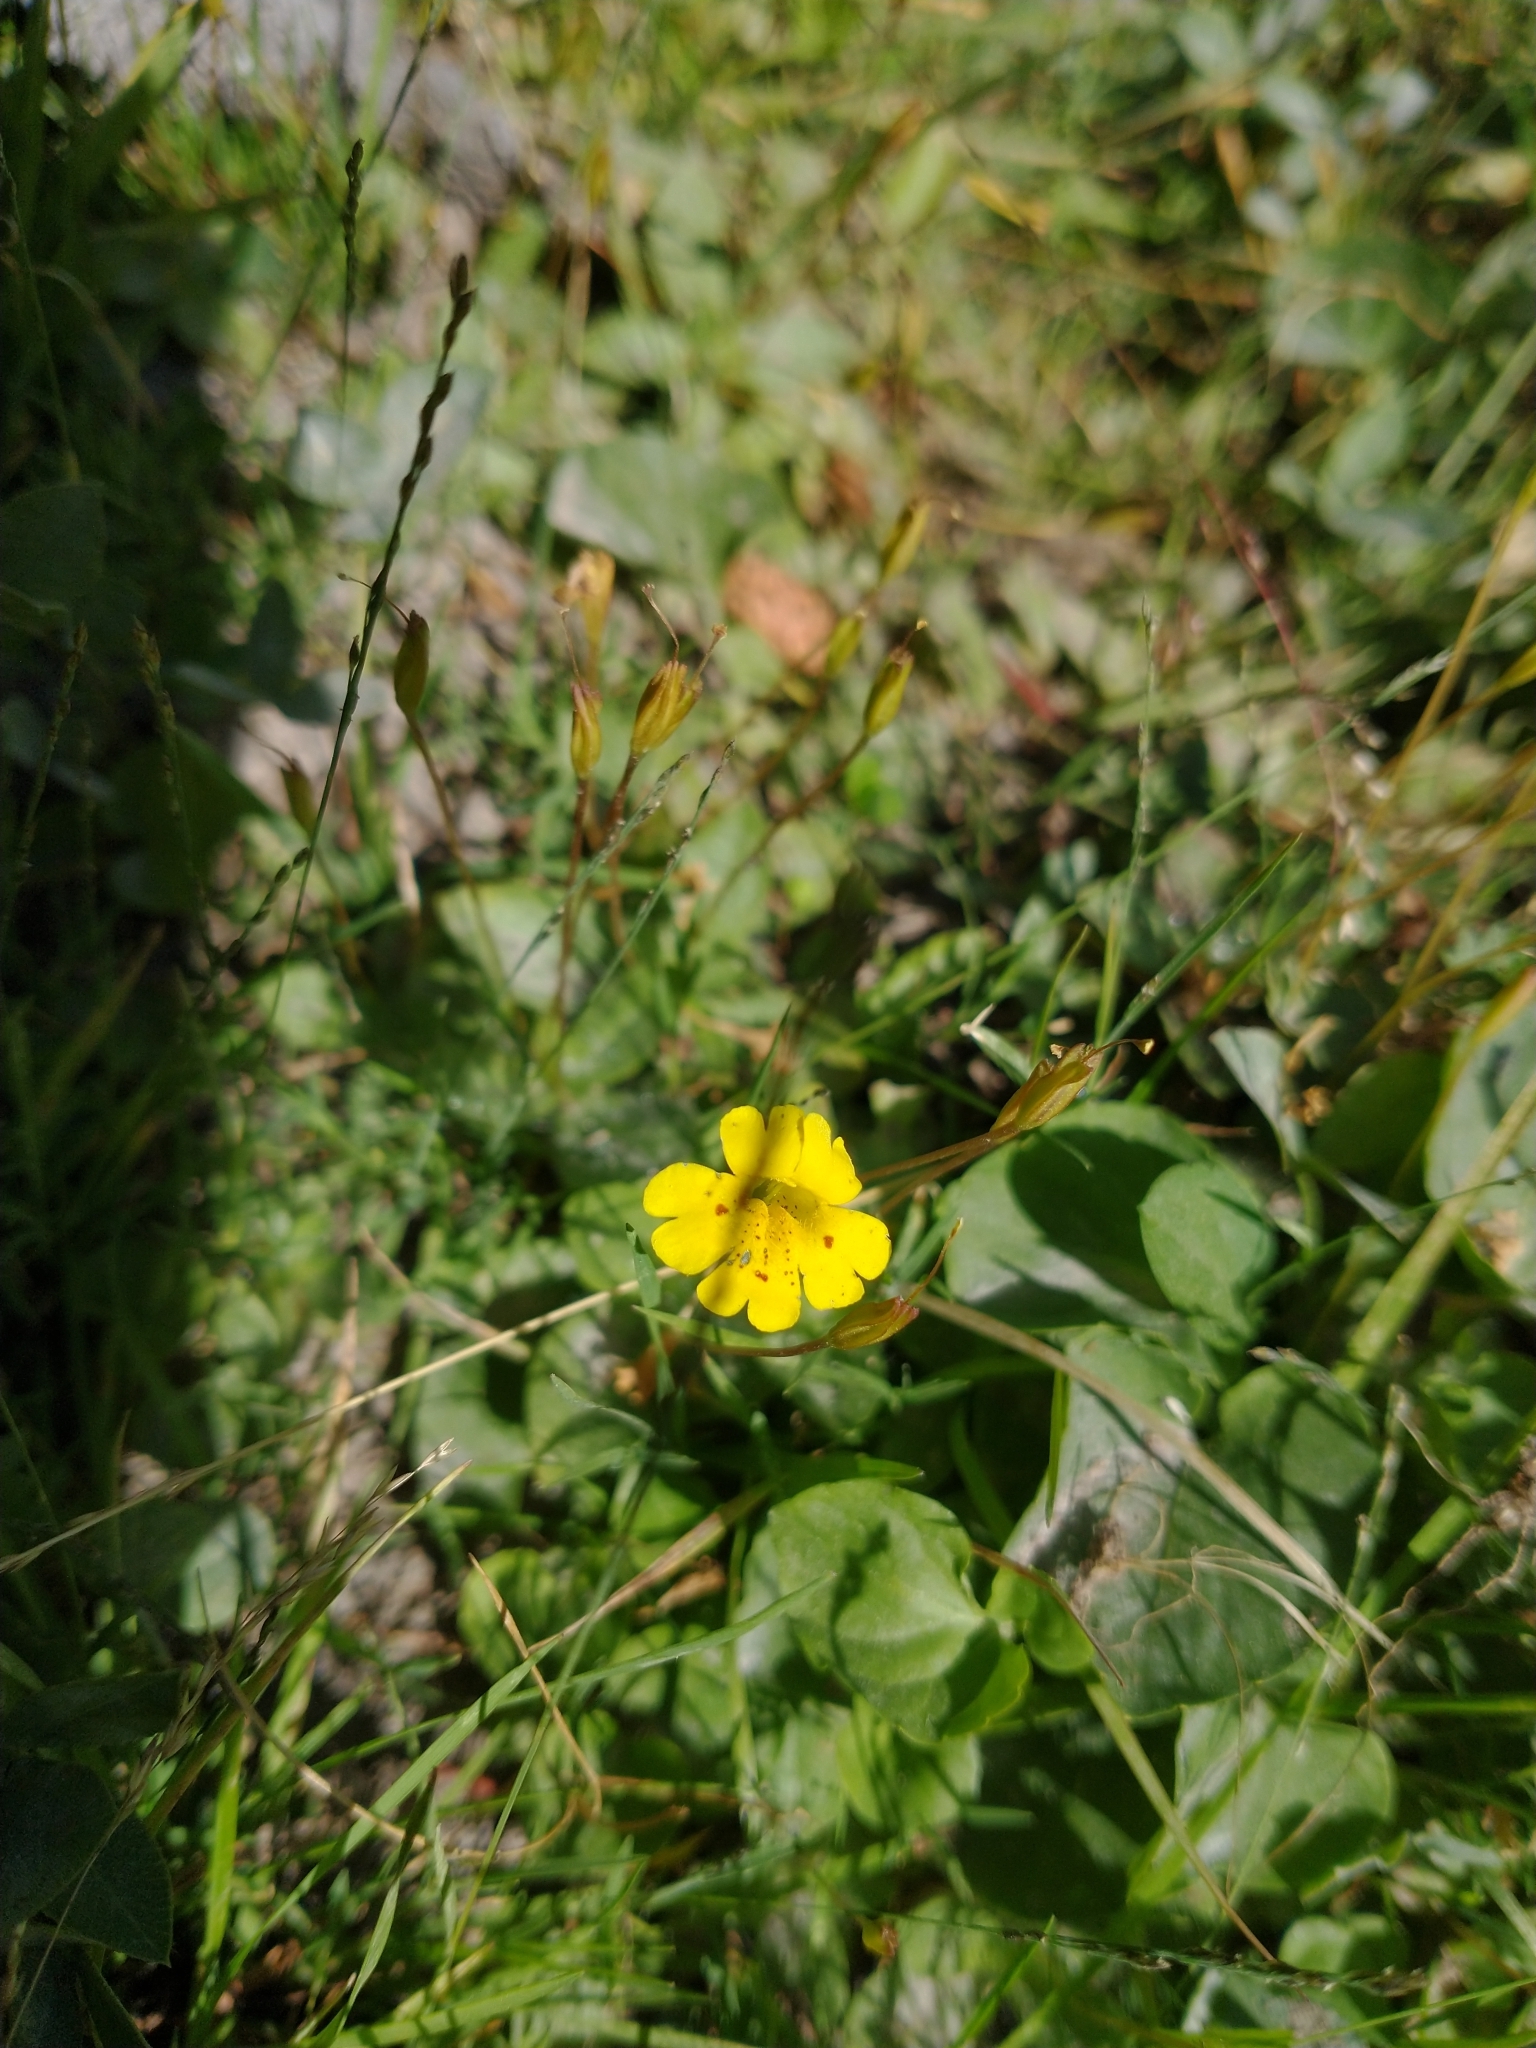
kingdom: Plantae
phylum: Tracheophyta
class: Magnoliopsida
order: Lamiales
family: Phrymaceae
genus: Erythranthe
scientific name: Erythranthe primuloides
